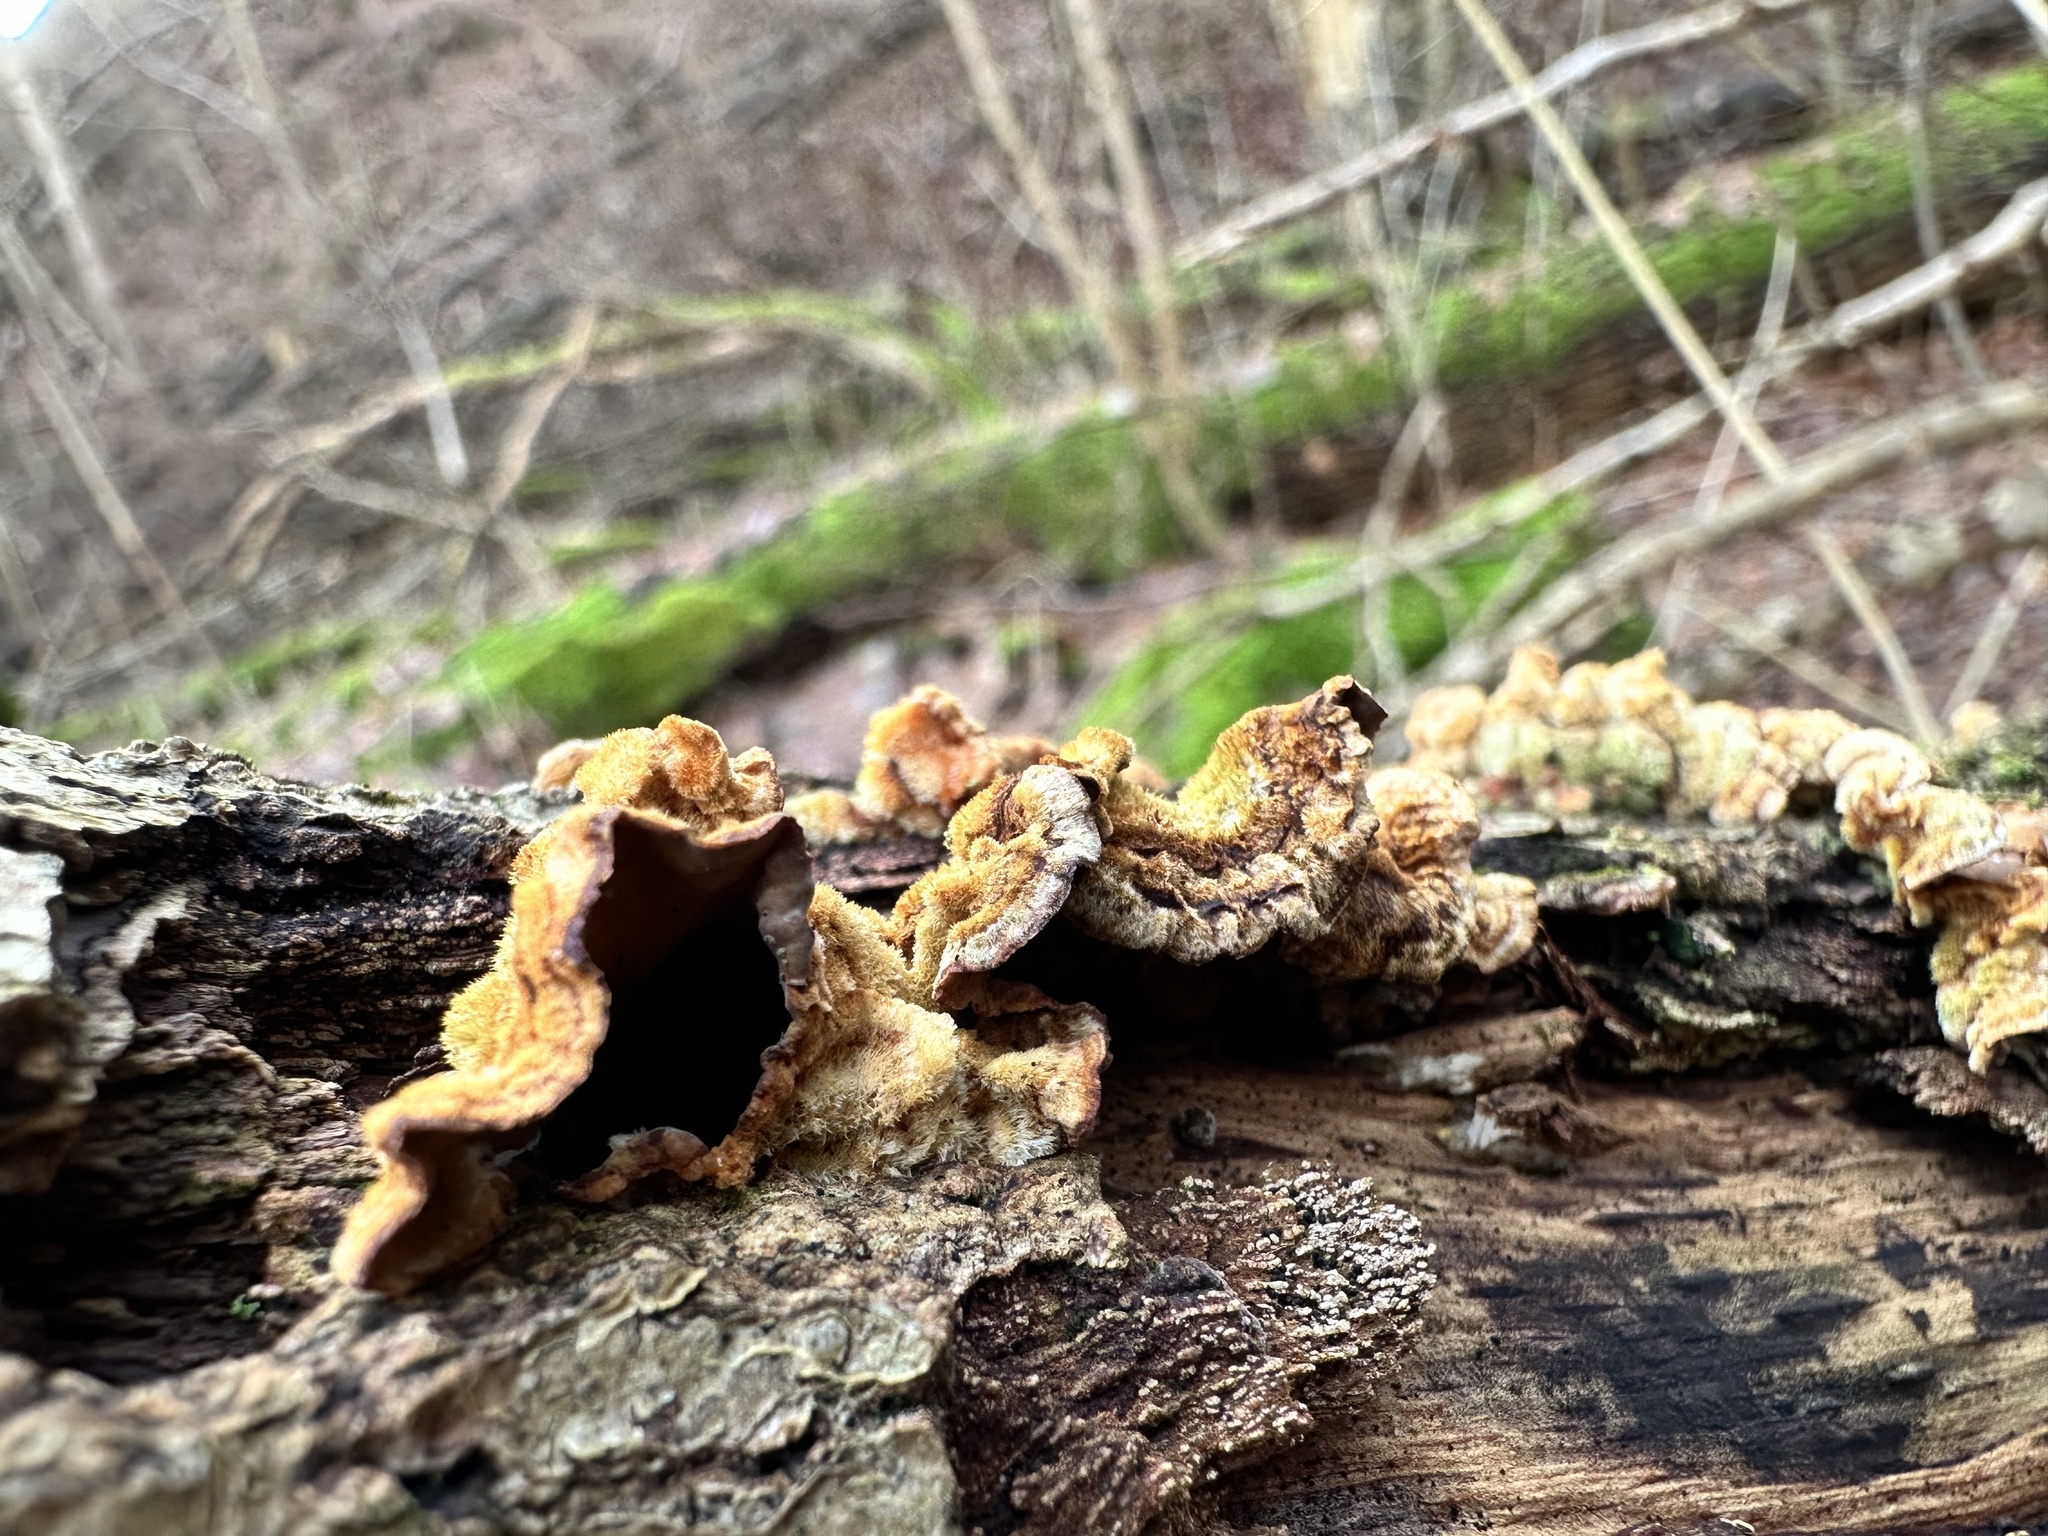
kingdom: Fungi
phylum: Basidiomycota
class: Agaricomycetes
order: Russulales
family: Stereaceae
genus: Stereum
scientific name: Stereum hirsutum
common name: Hairy curtain crust
